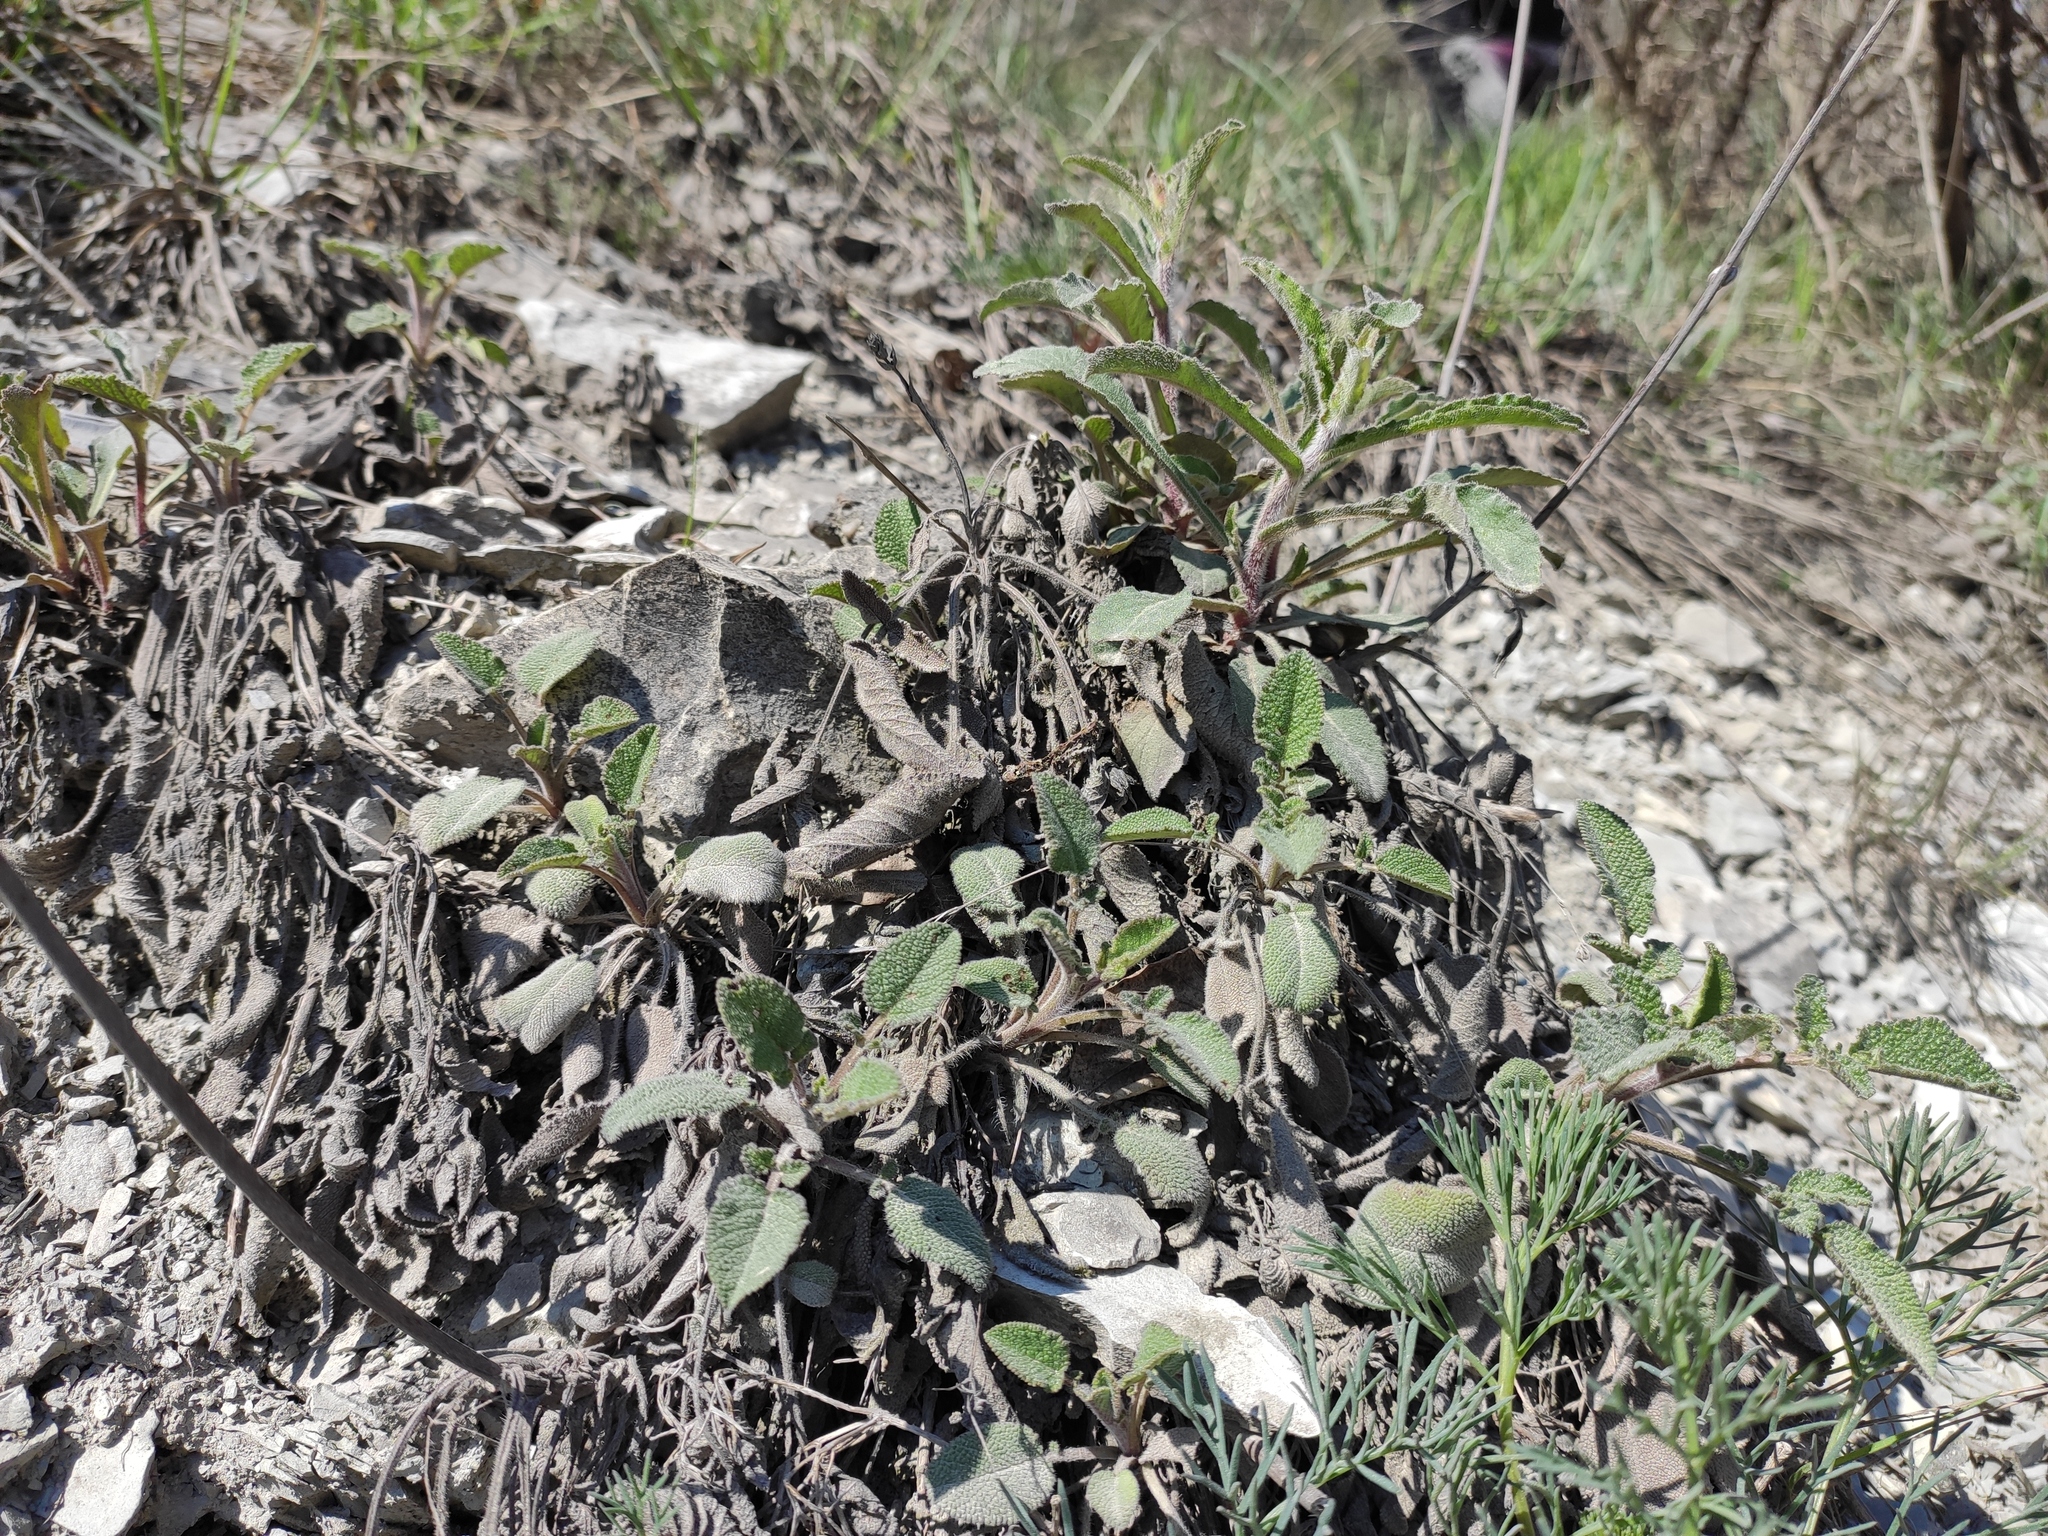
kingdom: Plantae
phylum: Tracheophyta
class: Magnoliopsida
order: Lamiales
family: Lamiaceae
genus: Salvia
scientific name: Salvia ringens
